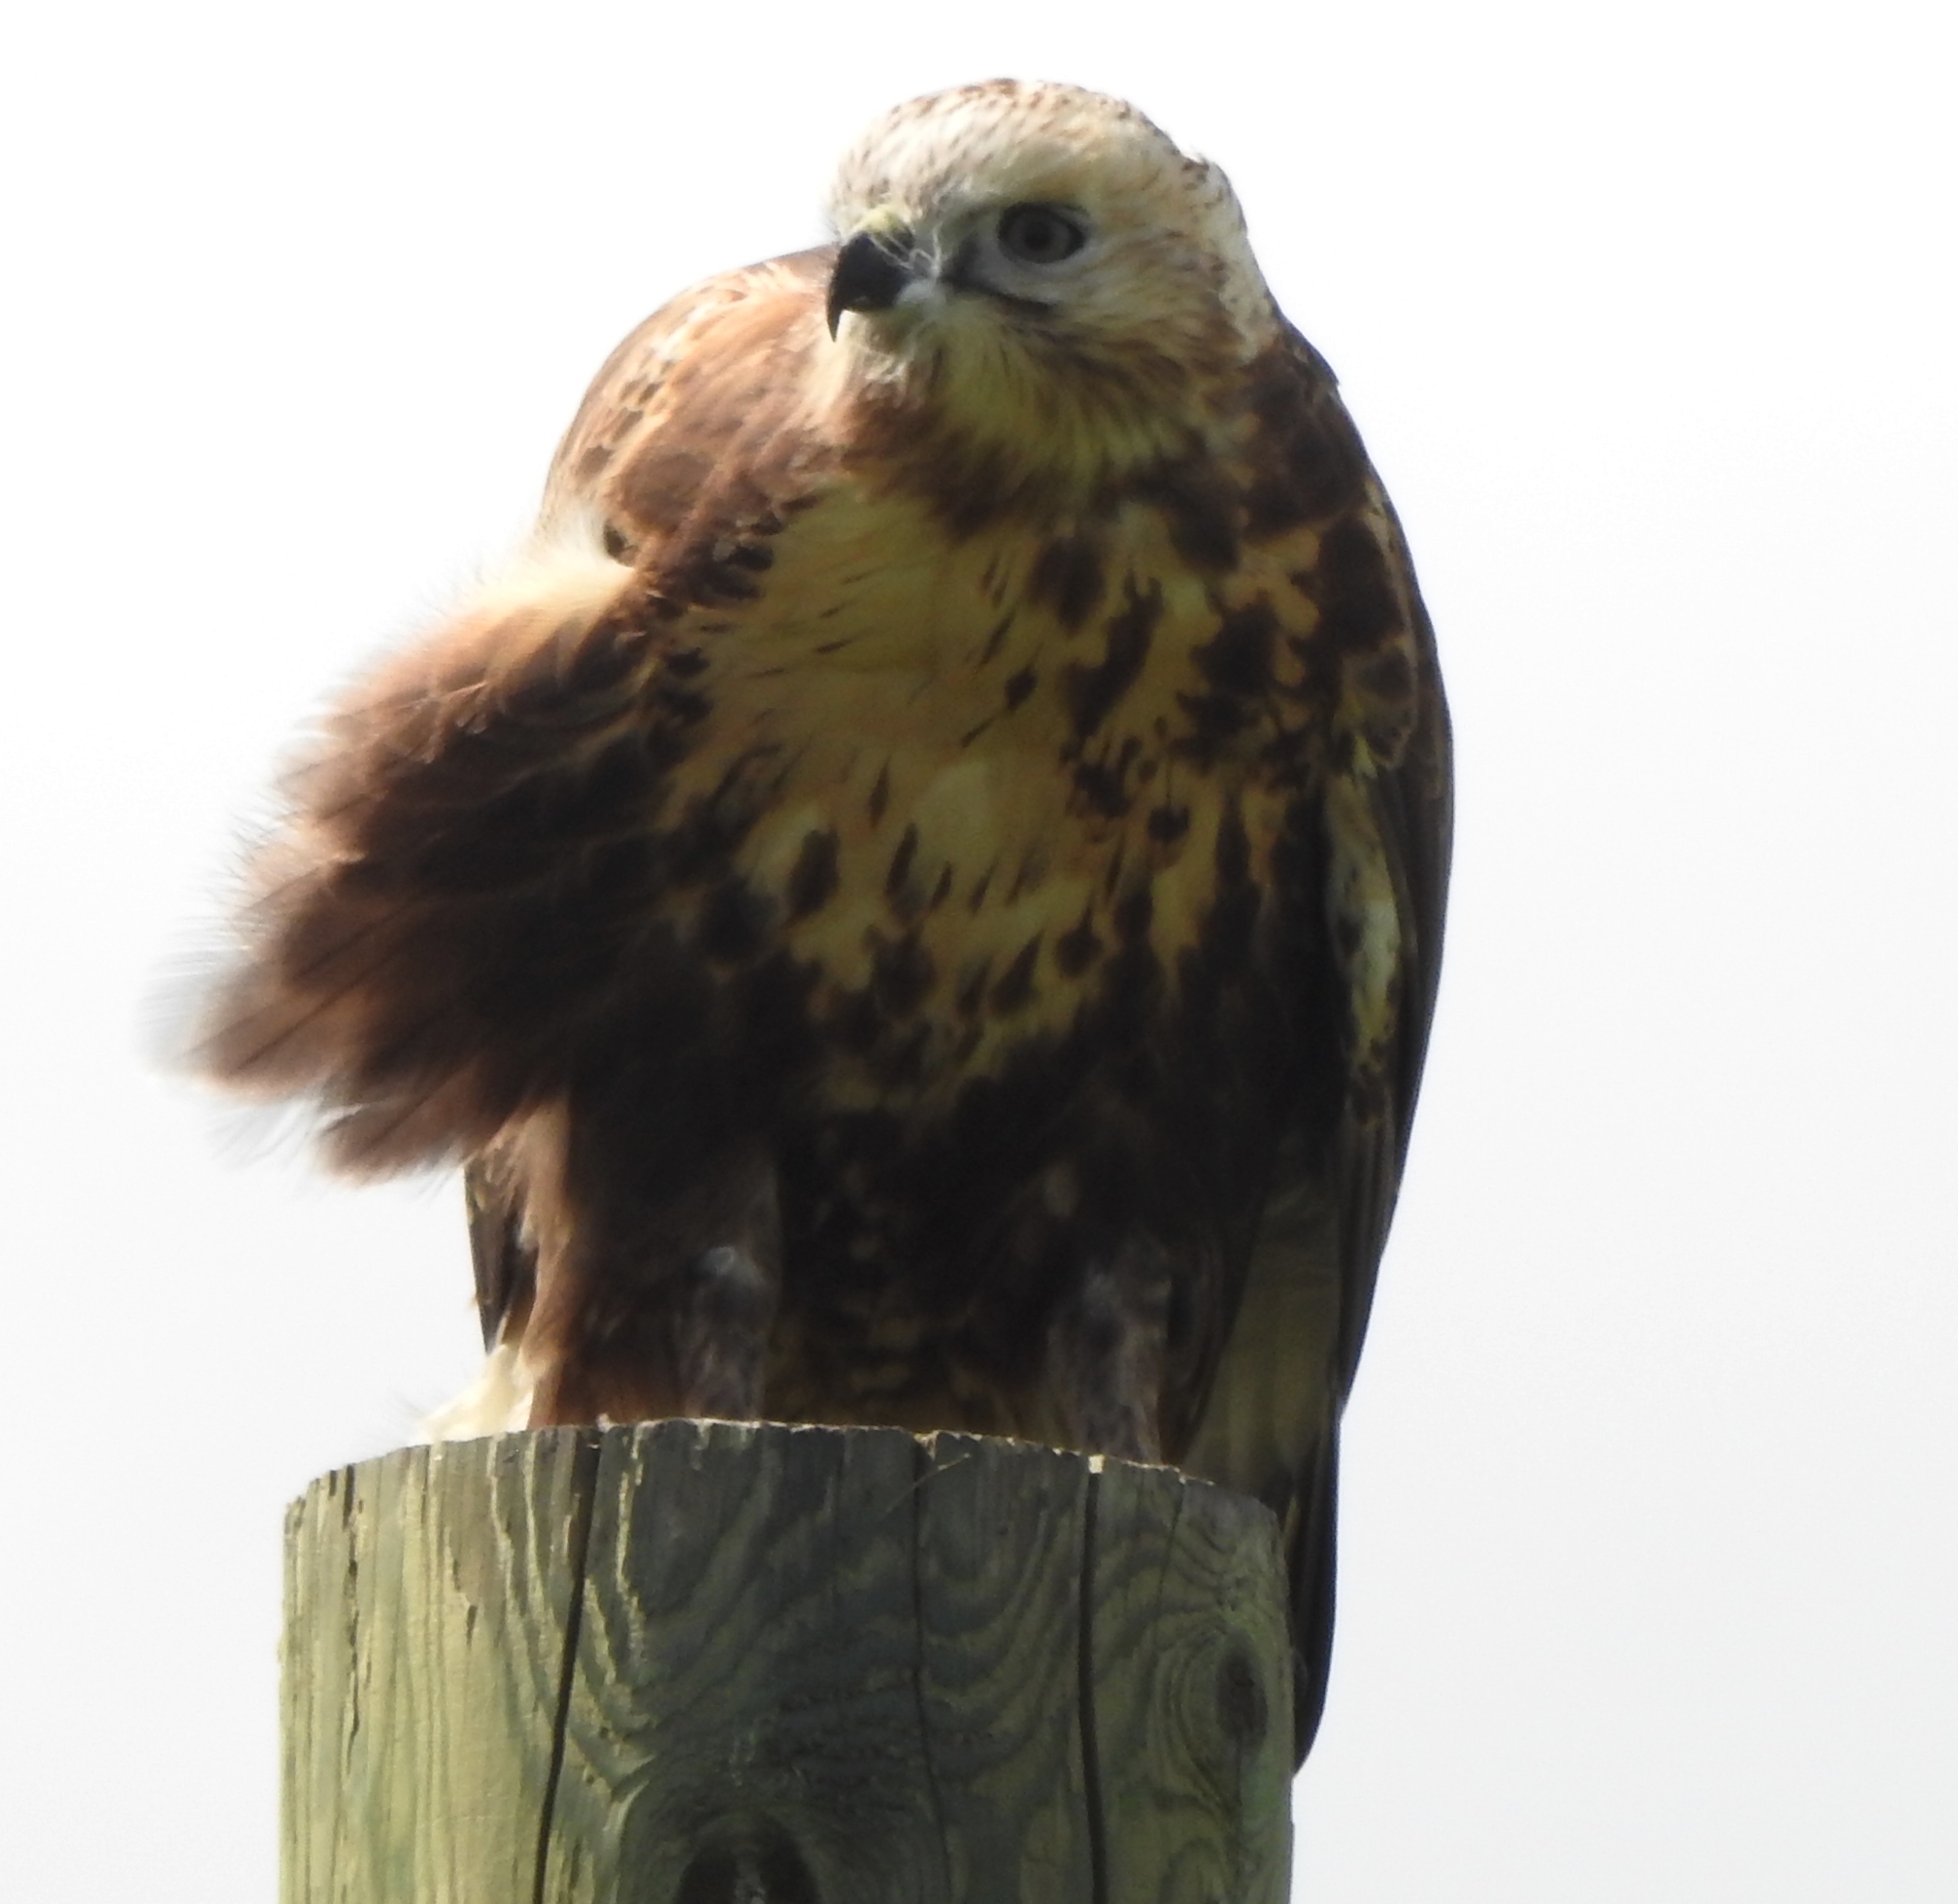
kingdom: Animalia
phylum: Chordata
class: Aves
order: Accipitriformes
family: Accipitridae
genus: Buteo
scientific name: Buteo hemilasius
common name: Upland buzzard
